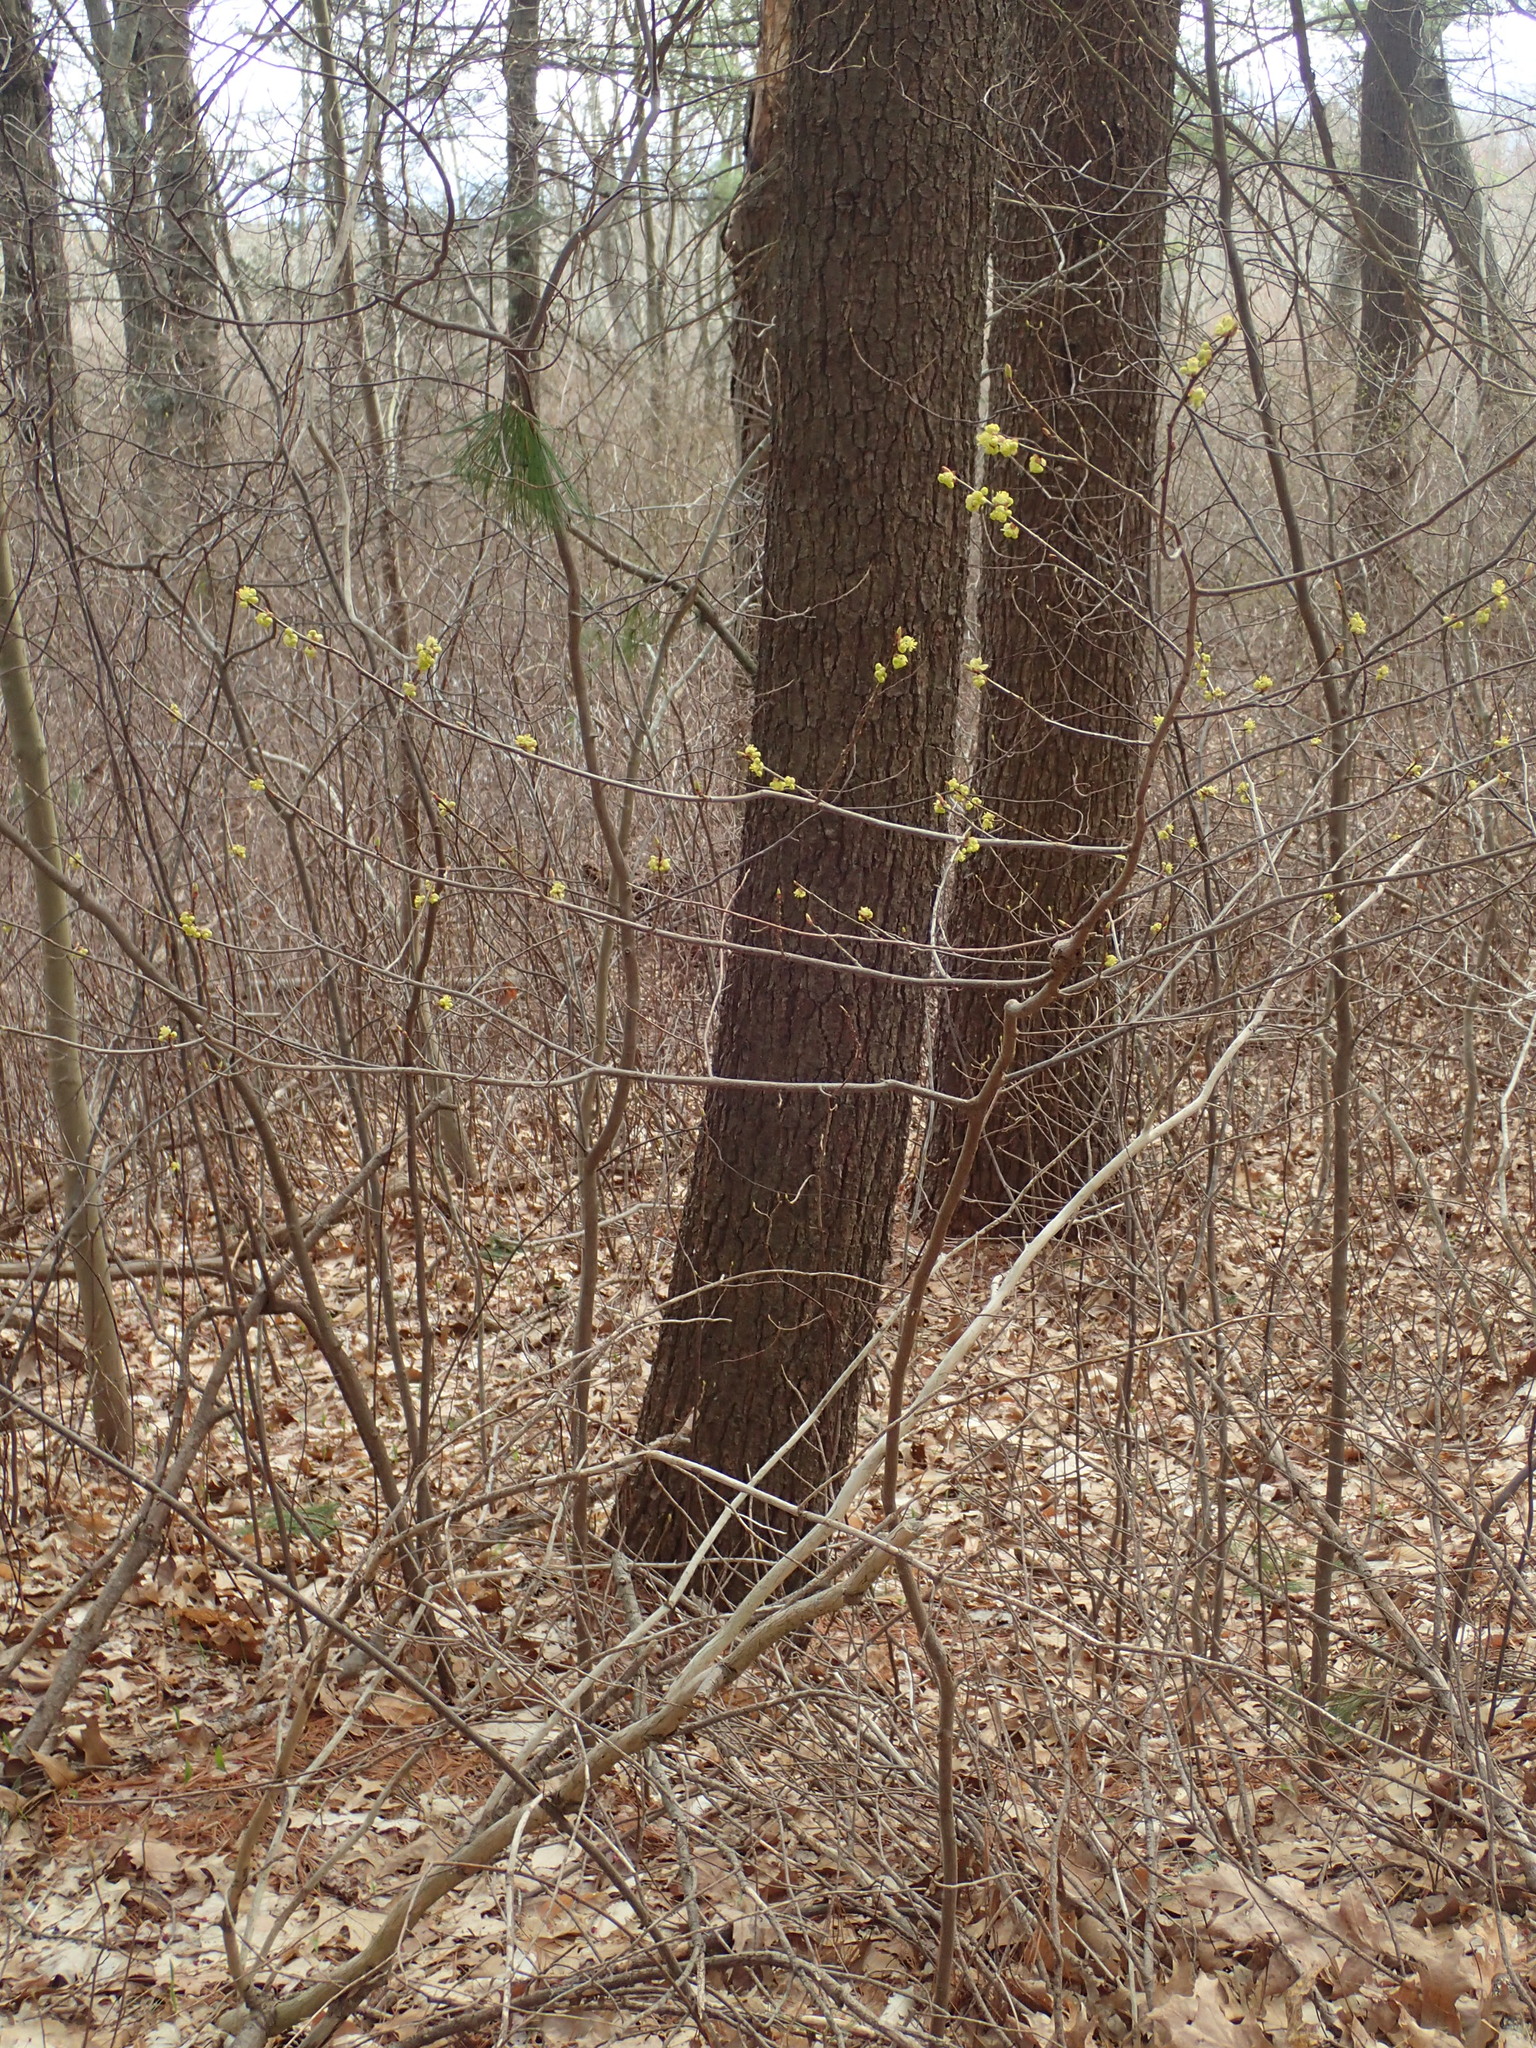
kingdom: Plantae
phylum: Tracheophyta
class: Magnoliopsida
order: Laurales
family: Lauraceae
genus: Lindera
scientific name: Lindera benzoin
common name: Spicebush
